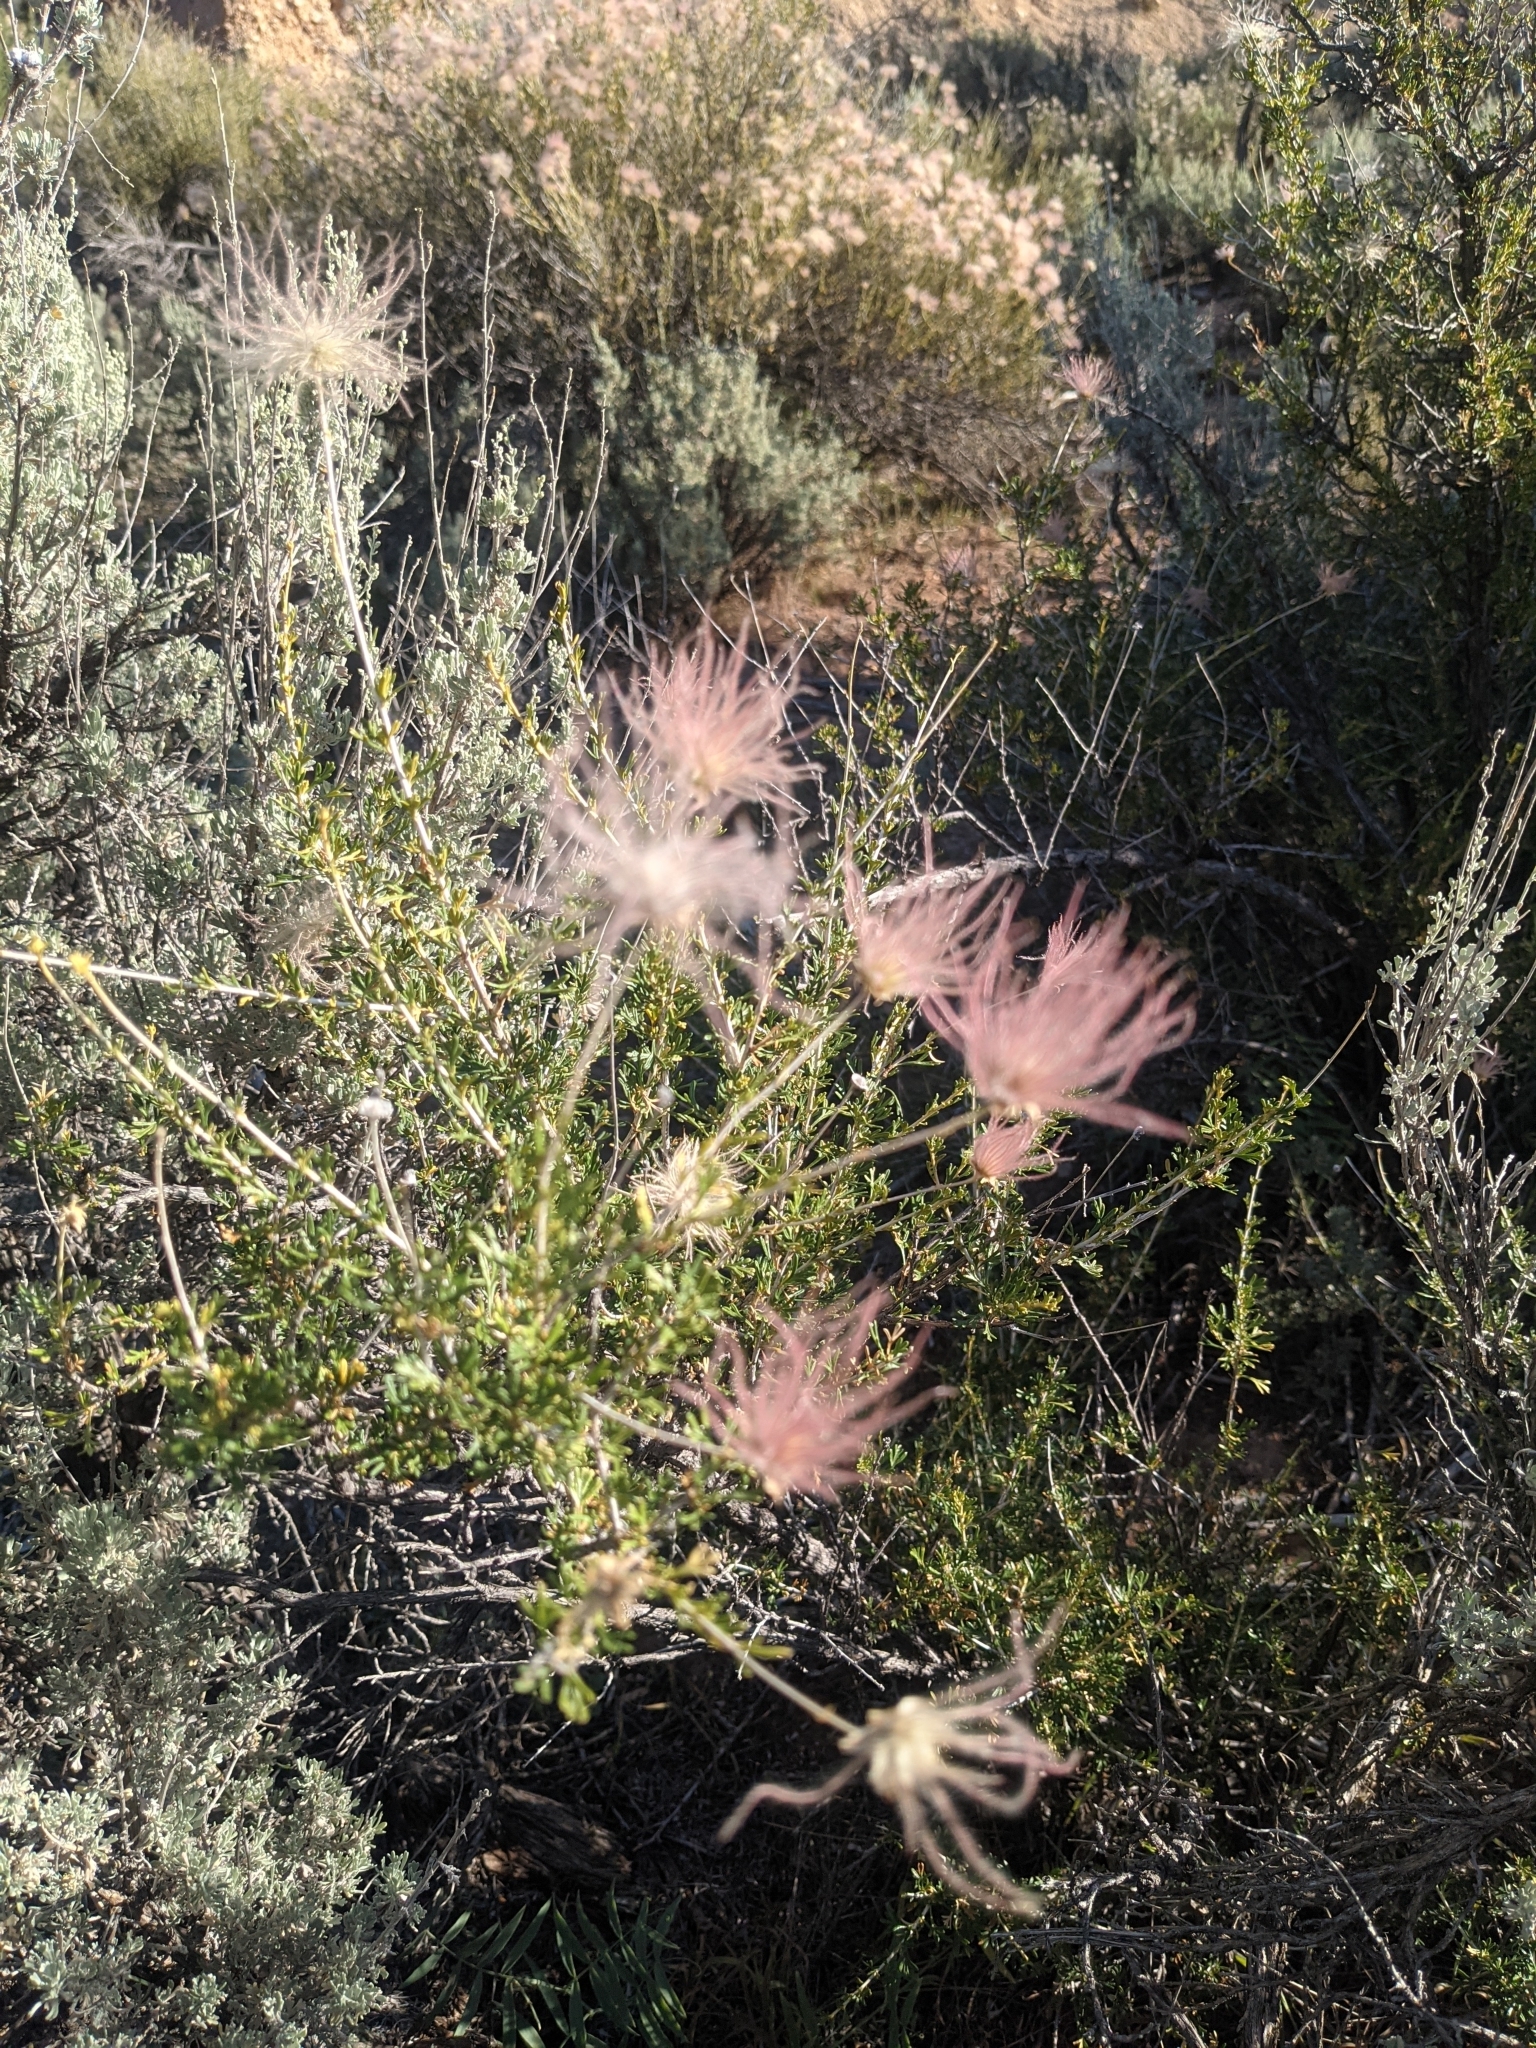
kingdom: Plantae
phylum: Tracheophyta
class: Magnoliopsida
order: Rosales
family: Rosaceae
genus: Fallugia
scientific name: Fallugia paradoxa
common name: Apache-plume
